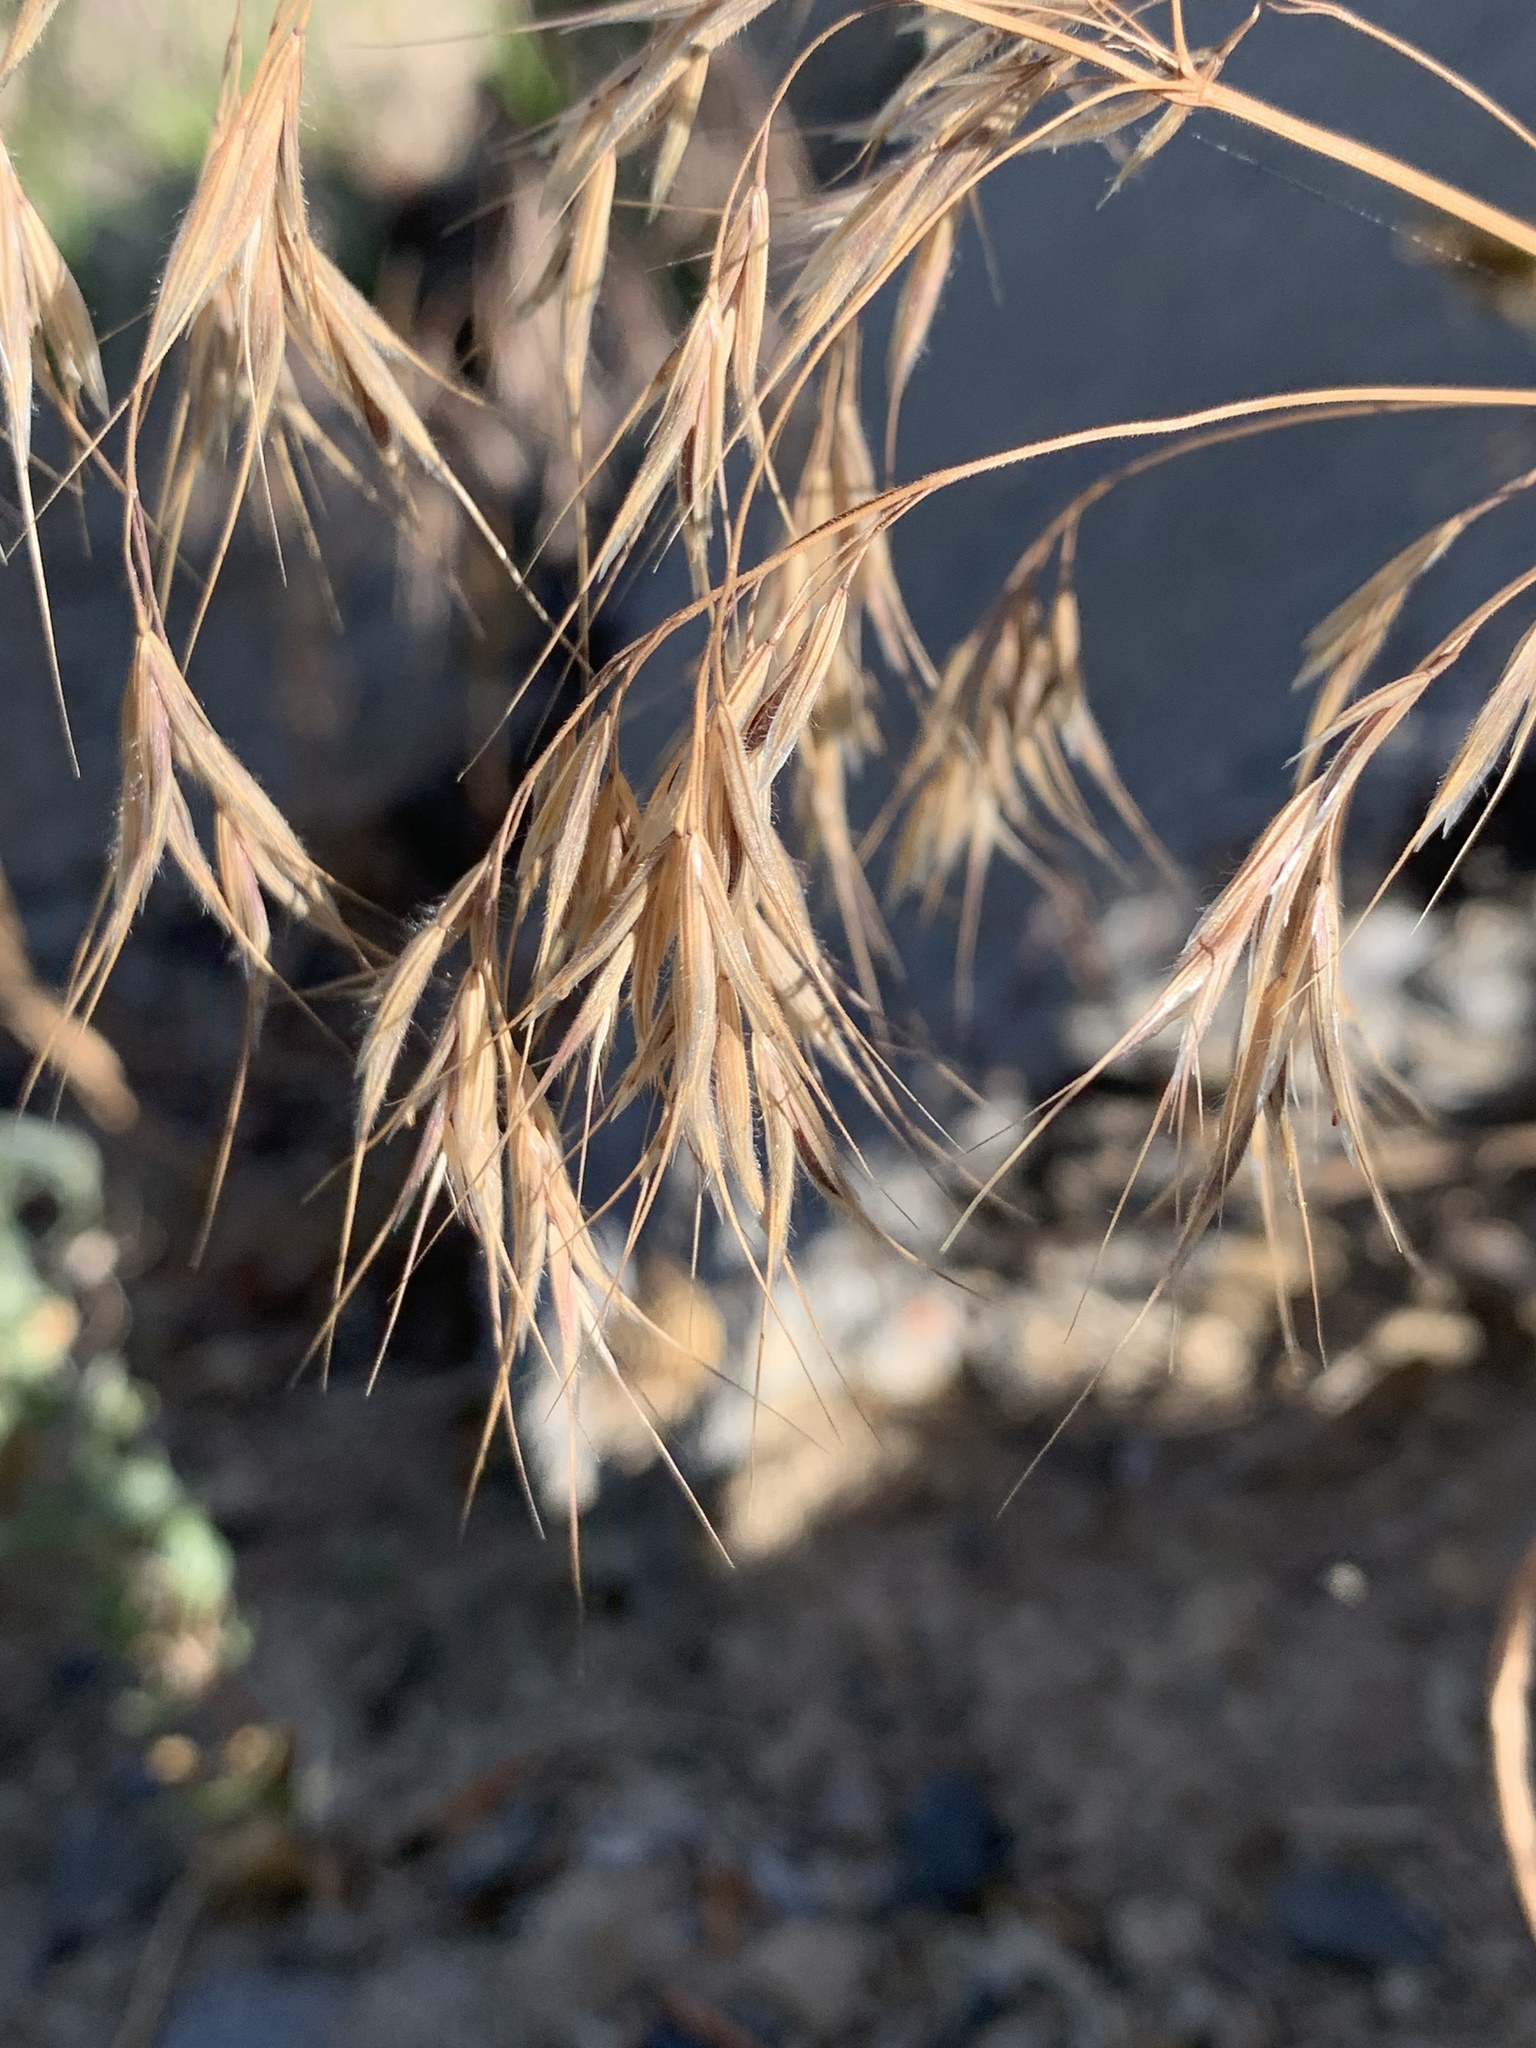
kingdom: Plantae
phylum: Tracheophyta
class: Liliopsida
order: Poales
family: Poaceae
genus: Bromus
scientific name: Bromus tectorum
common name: Cheatgrass
